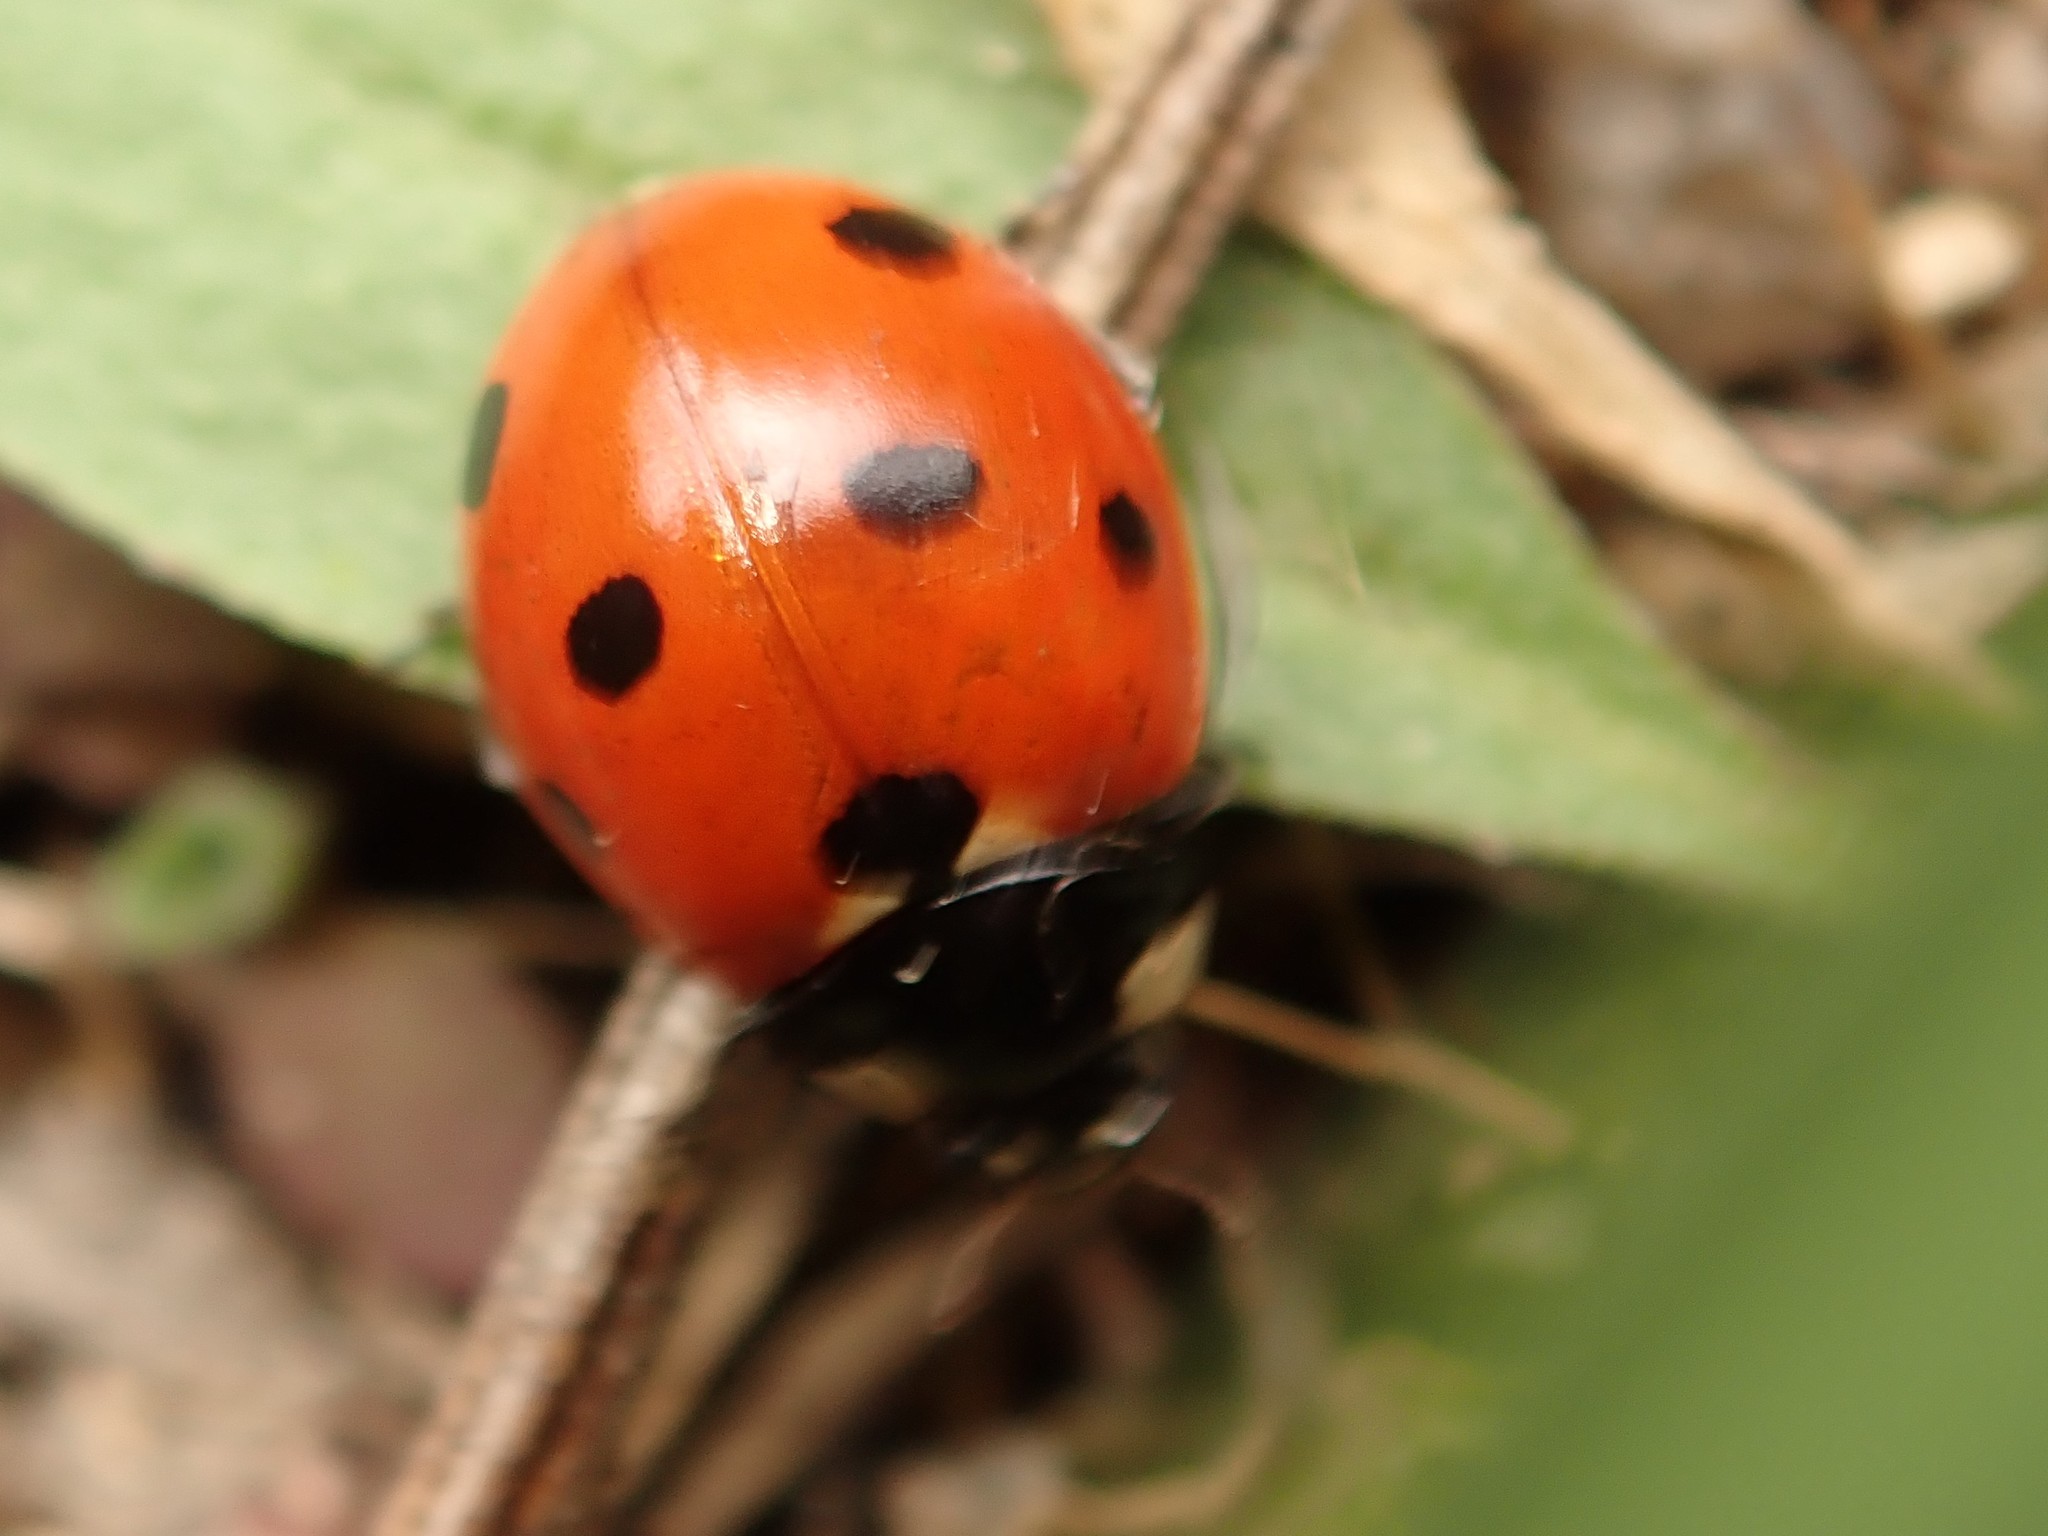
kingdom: Animalia
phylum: Arthropoda
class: Insecta
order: Coleoptera
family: Coccinellidae
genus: Coccinella
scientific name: Coccinella septempunctata
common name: Sevenspotted lady beetle
